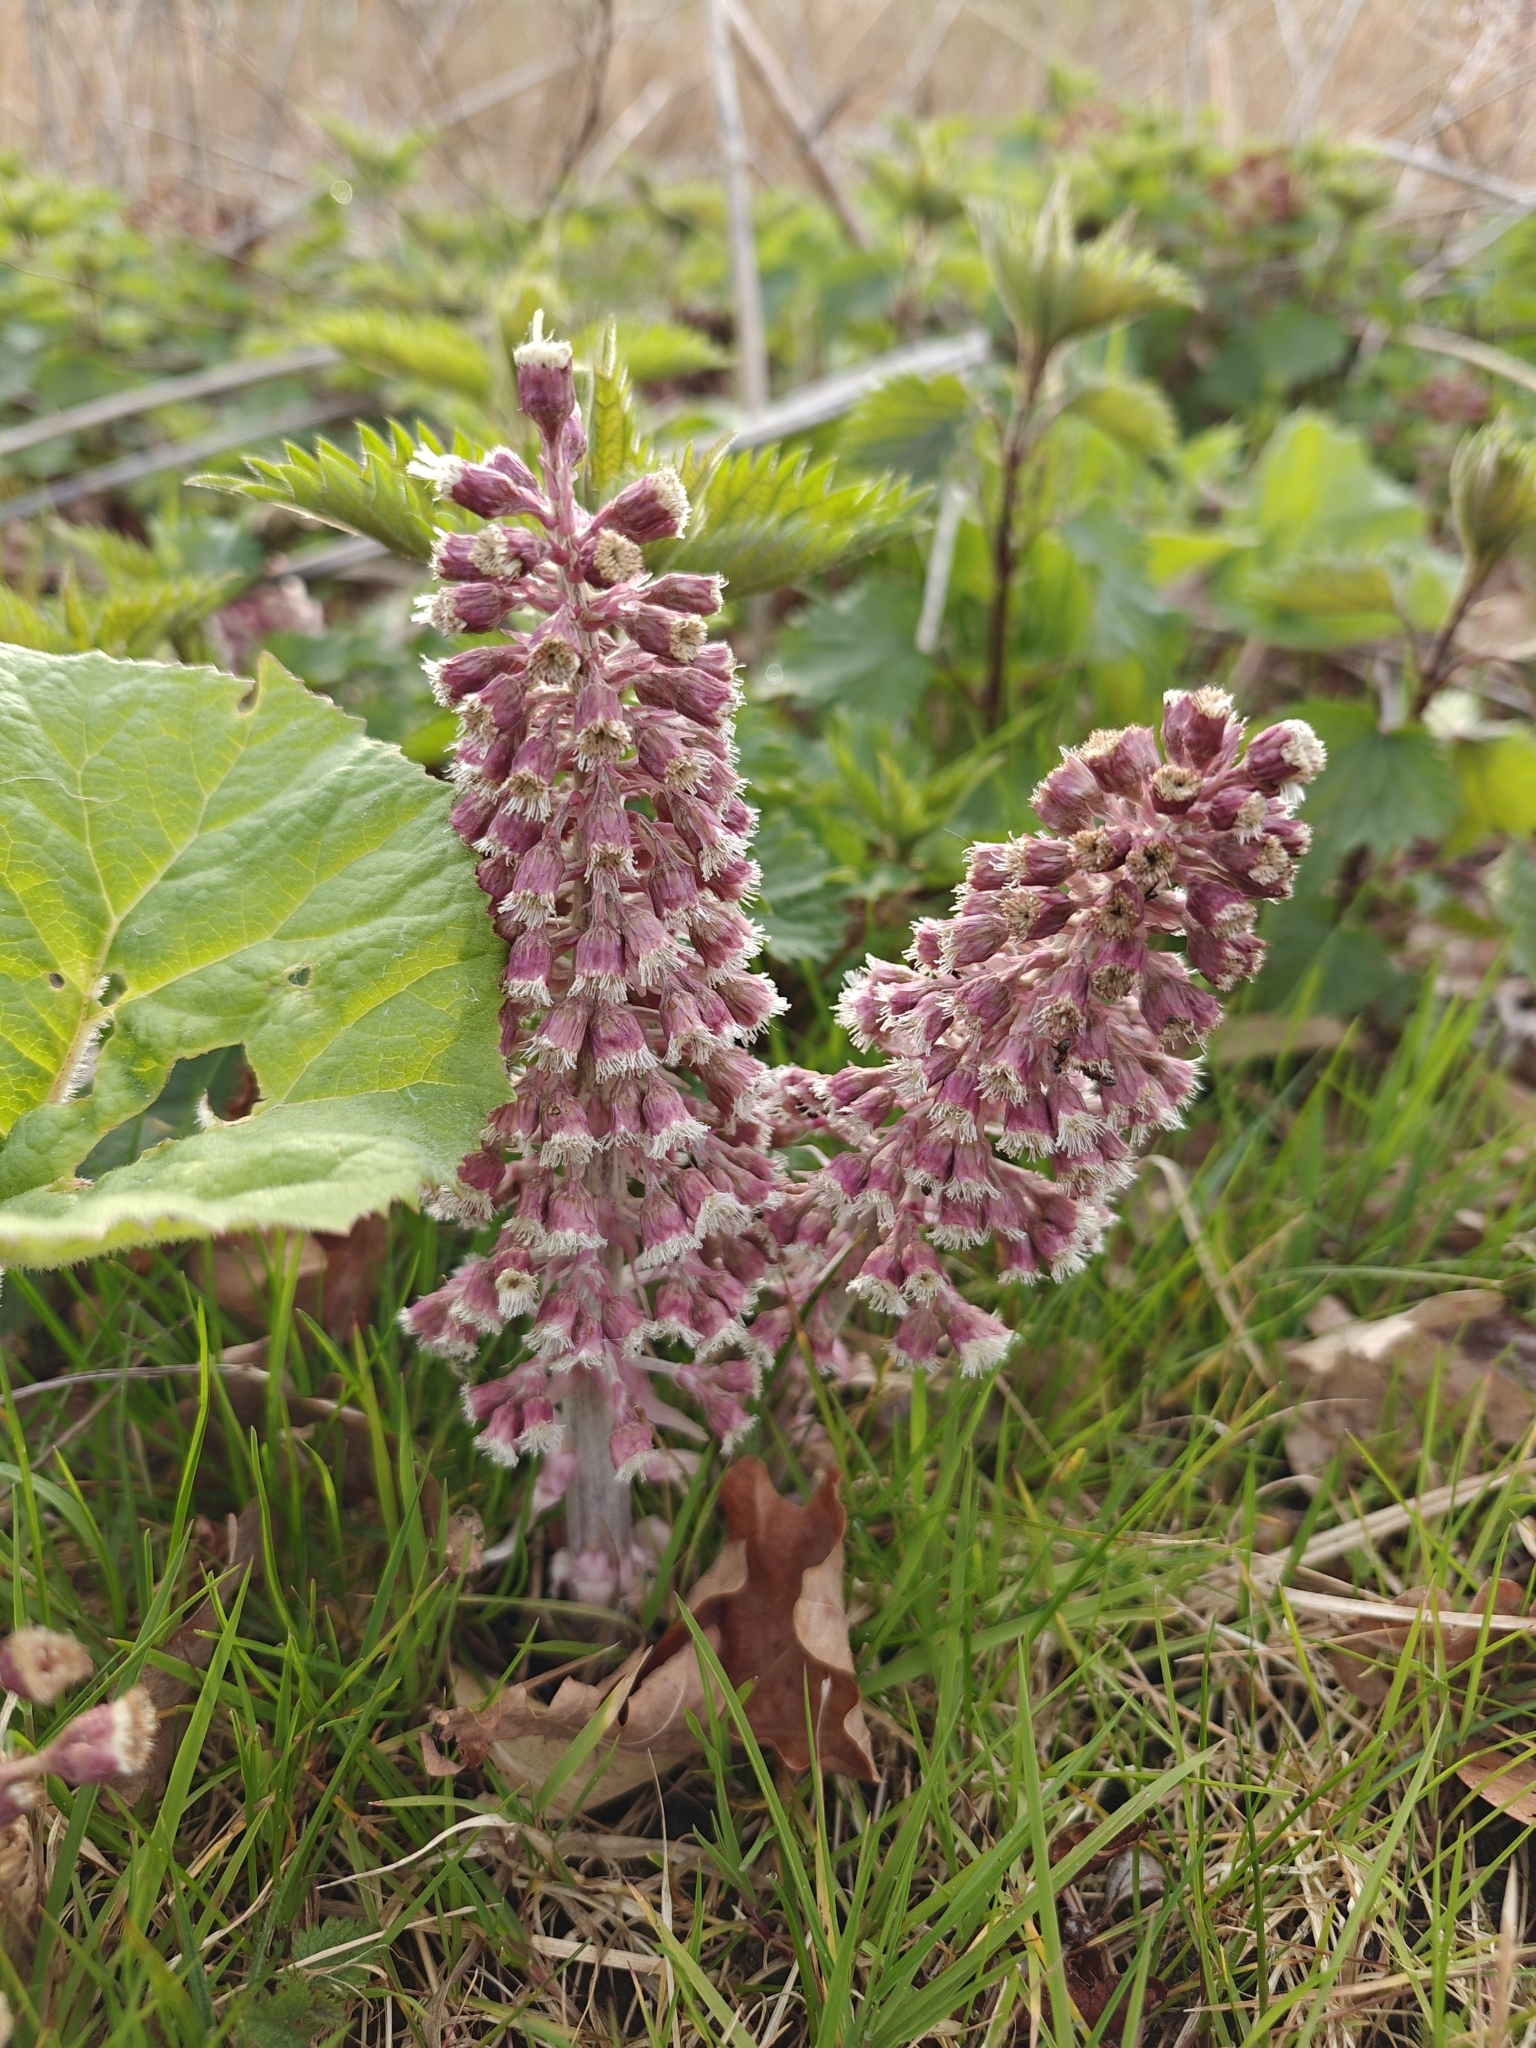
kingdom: Plantae
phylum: Tracheophyta
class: Magnoliopsida
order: Asterales
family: Asteraceae
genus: Petasites
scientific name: Petasites hybridus
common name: Butterbur
